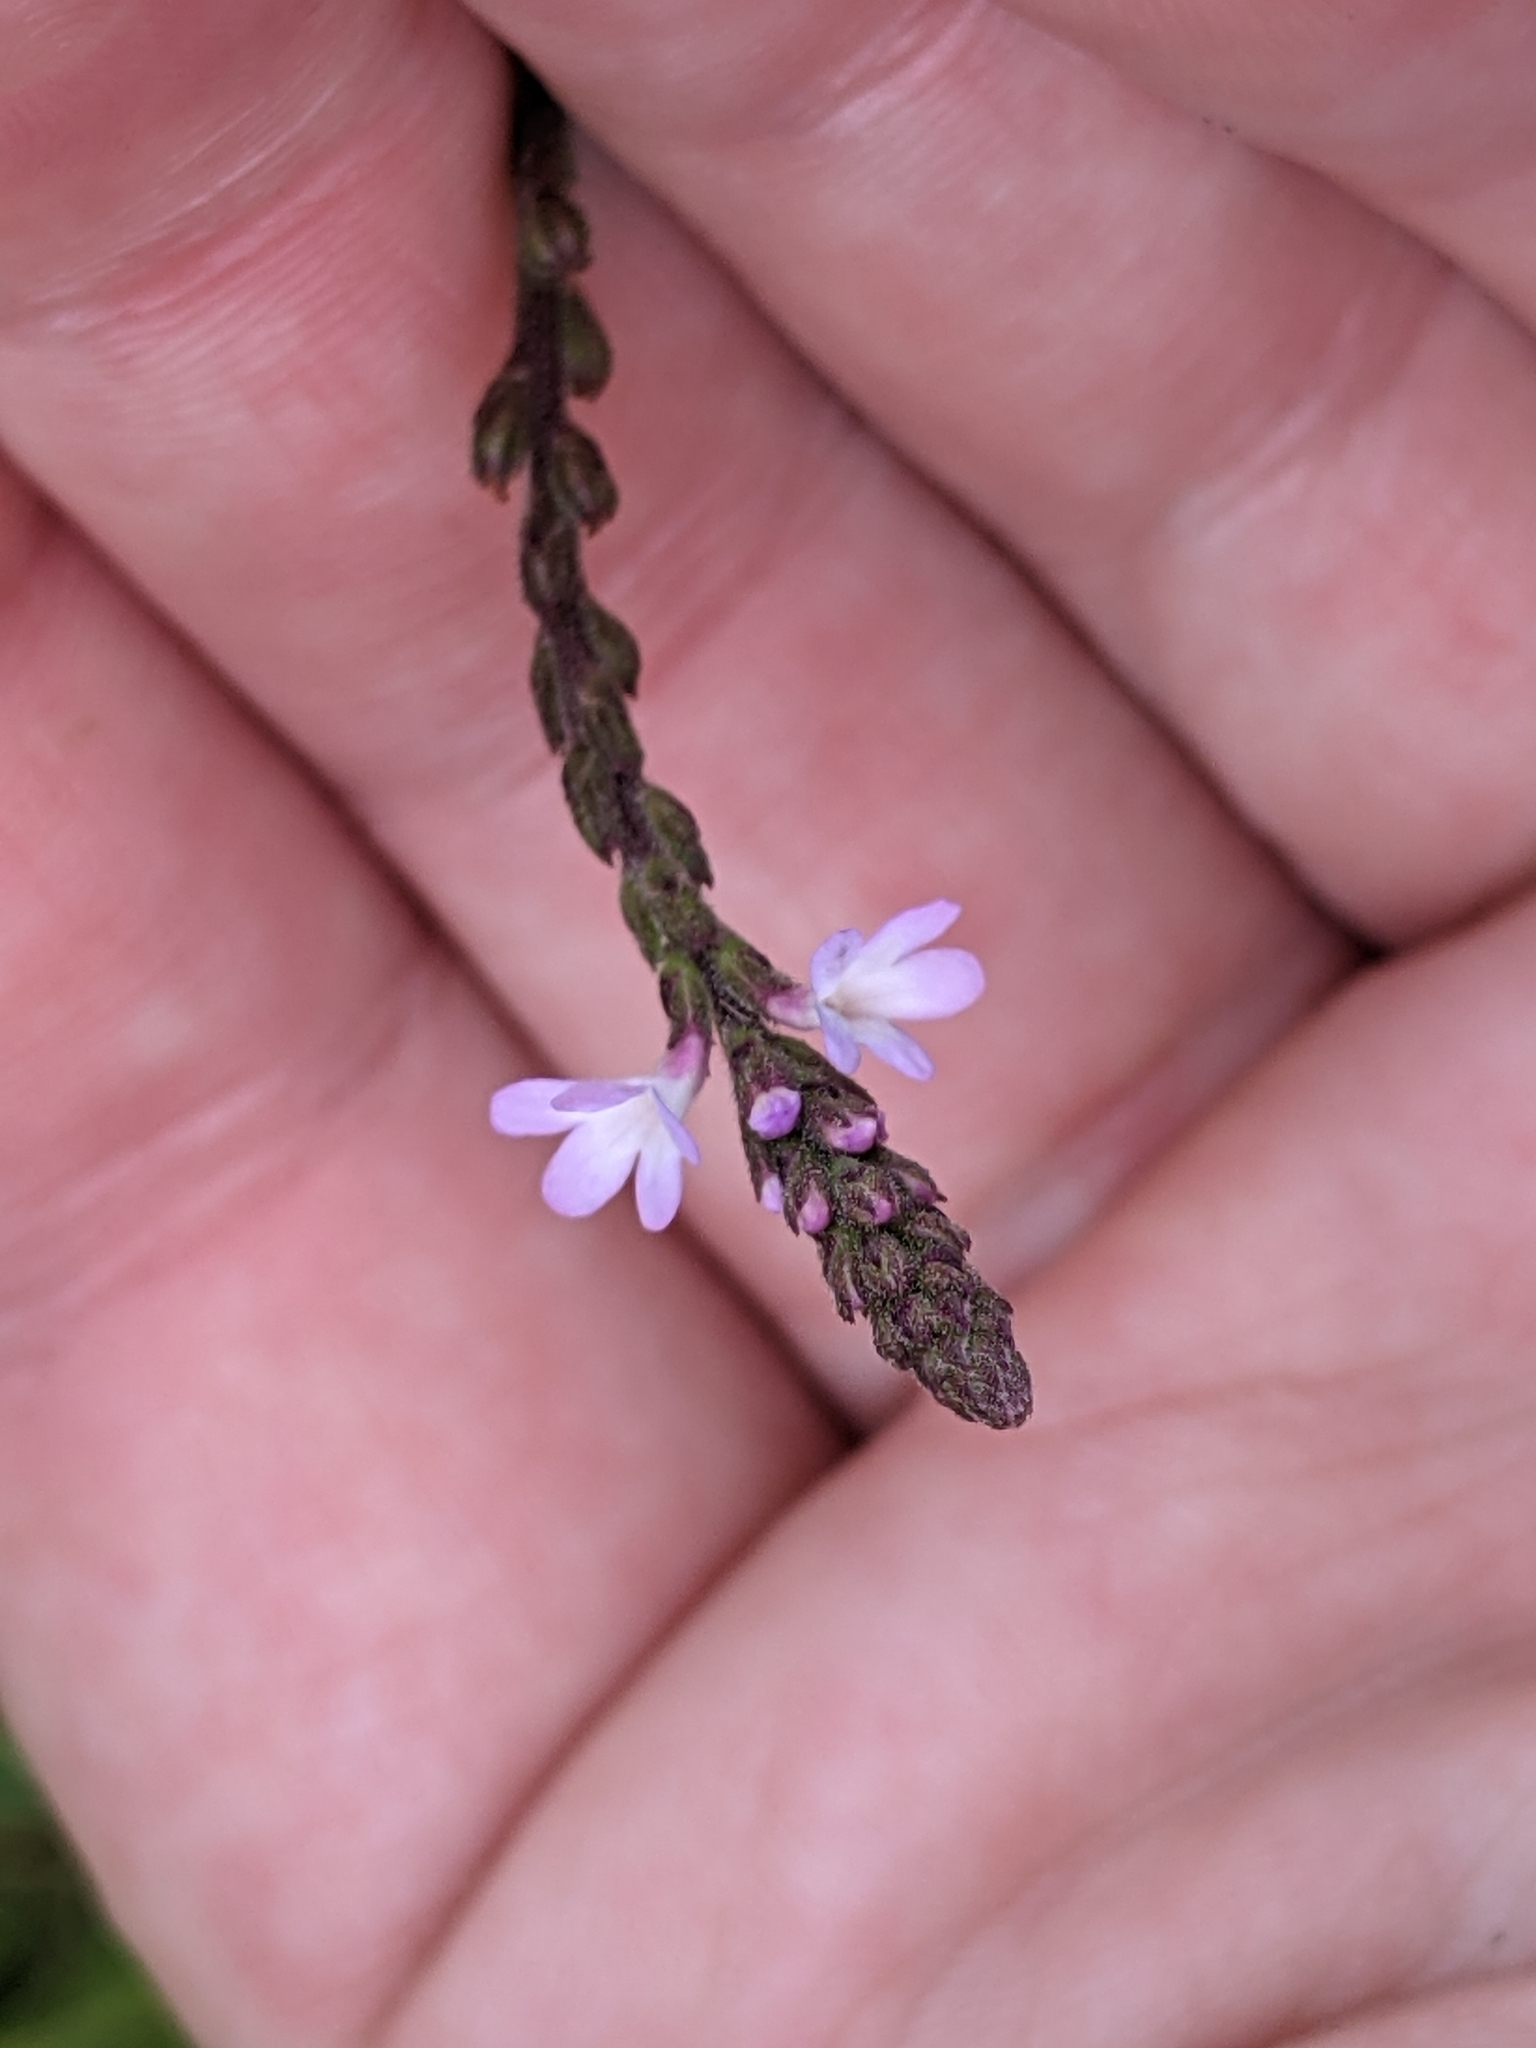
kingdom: Plantae
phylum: Tracheophyta
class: Magnoliopsida
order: Lamiales
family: Verbenaceae
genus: Verbena
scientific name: Verbena officinalis
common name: Vervain
